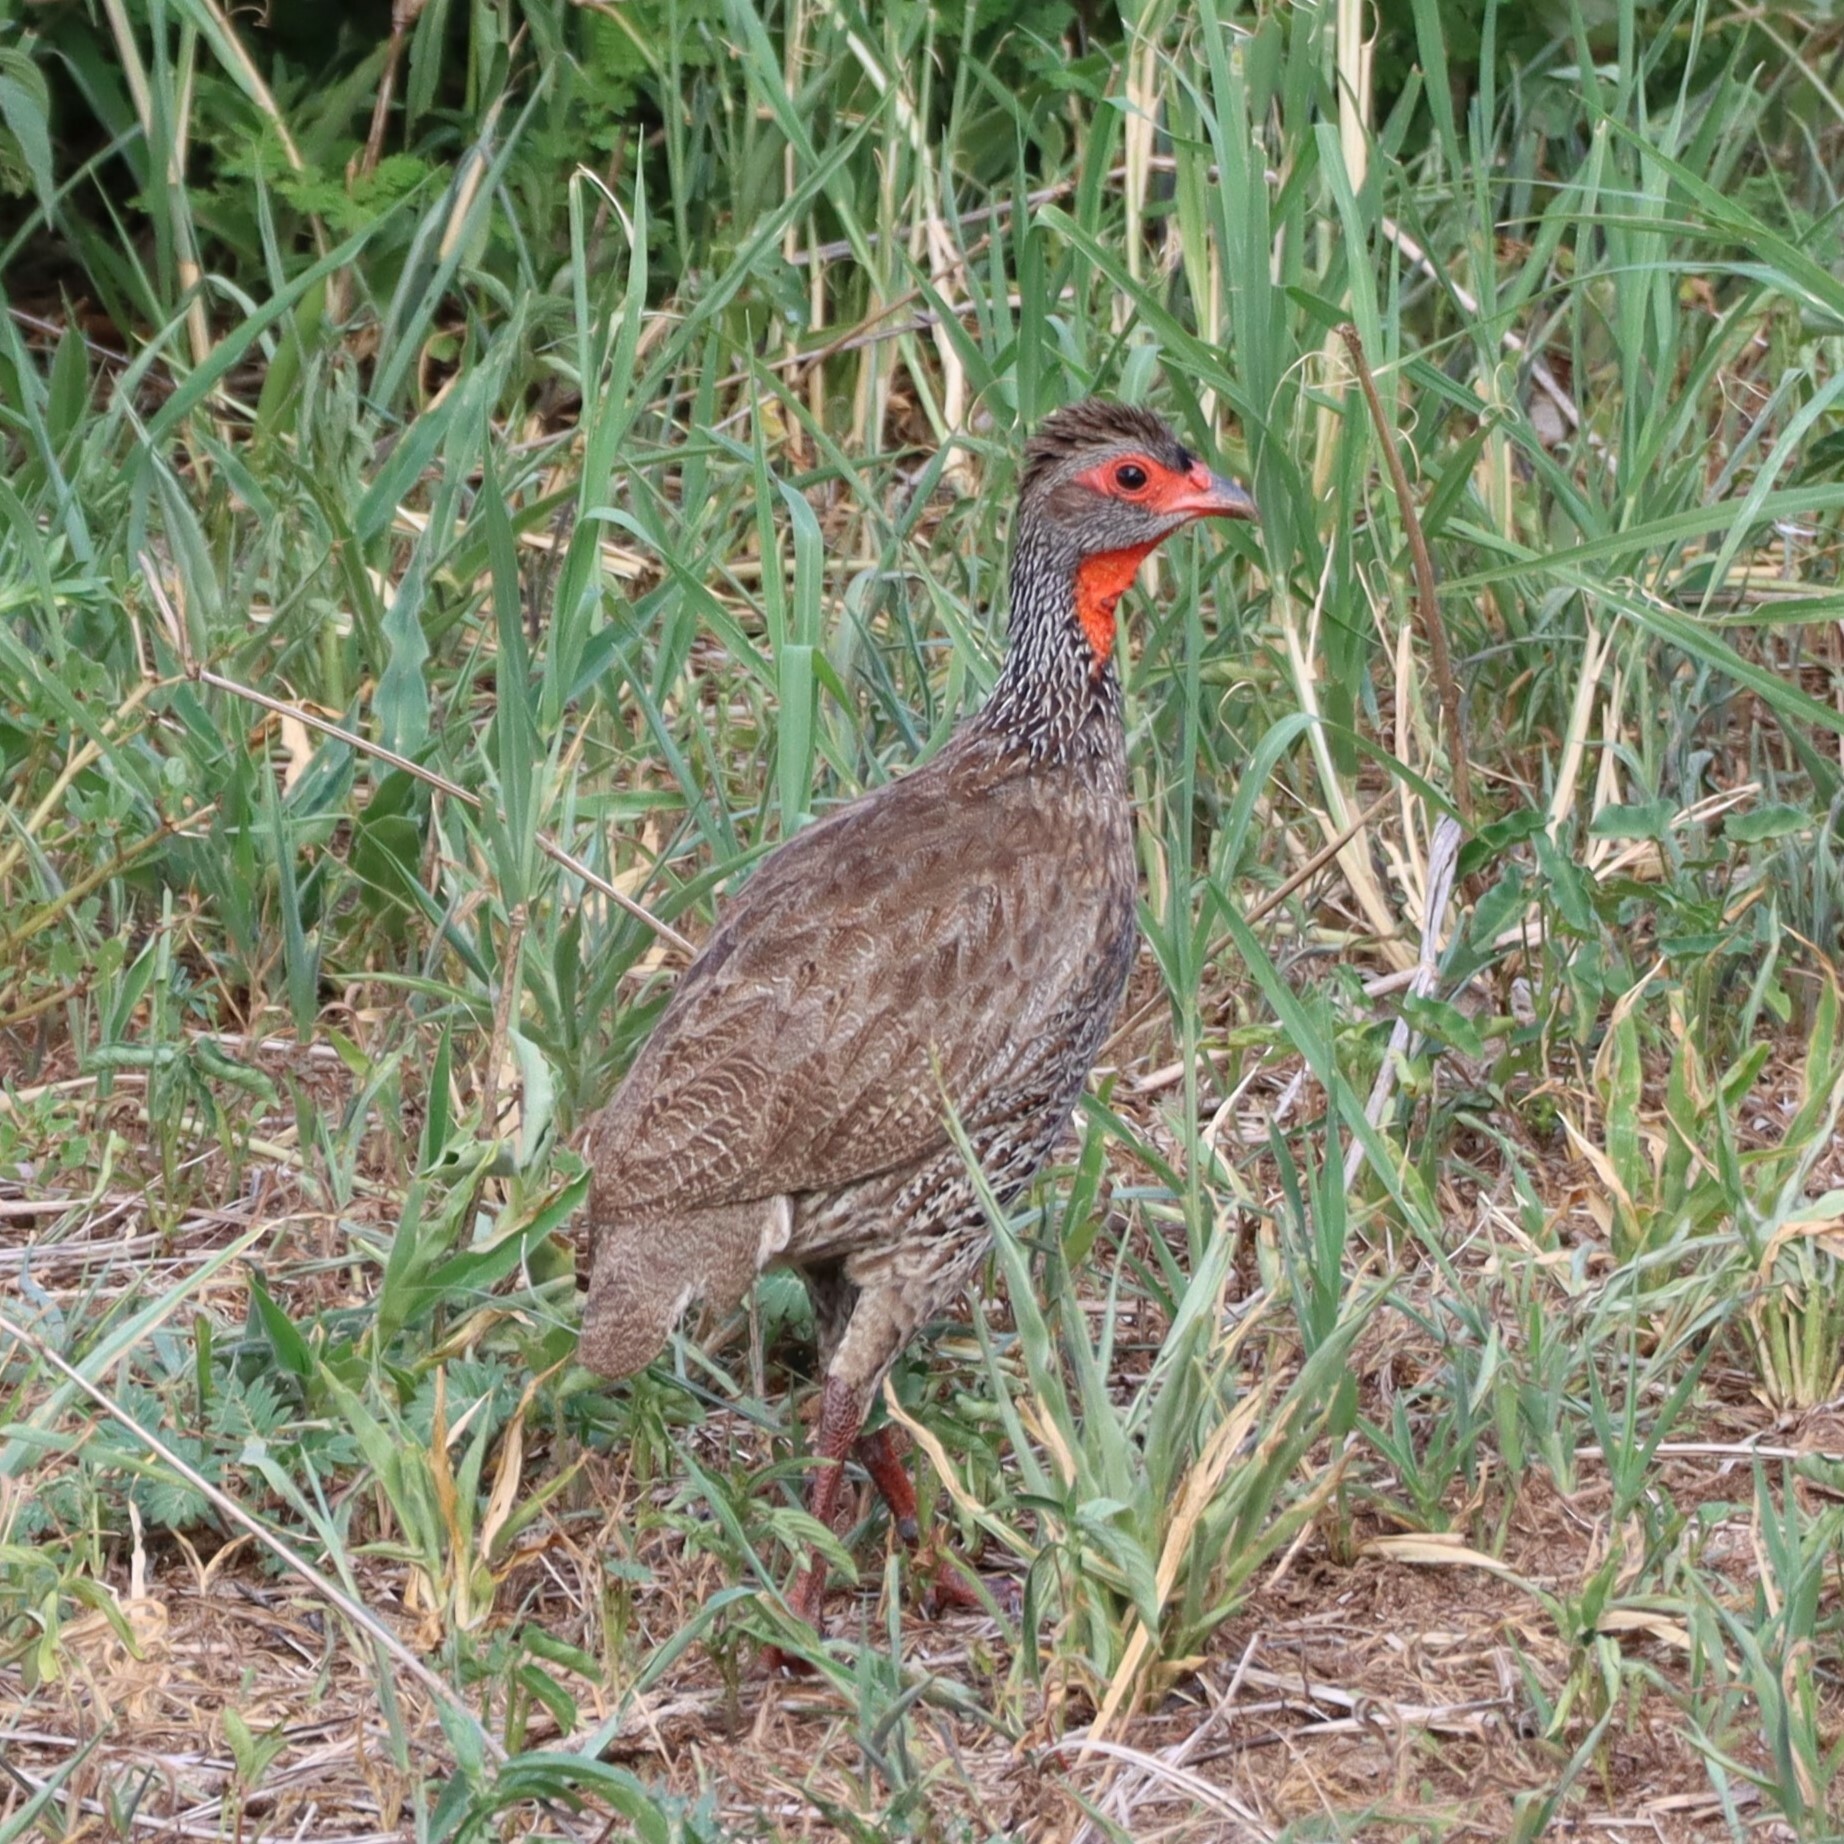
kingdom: Animalia
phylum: Chordata
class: Aves
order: Galliformes
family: Phasianidae
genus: Pternistis
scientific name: Pternistis afer
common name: Red-necked spurfowl
